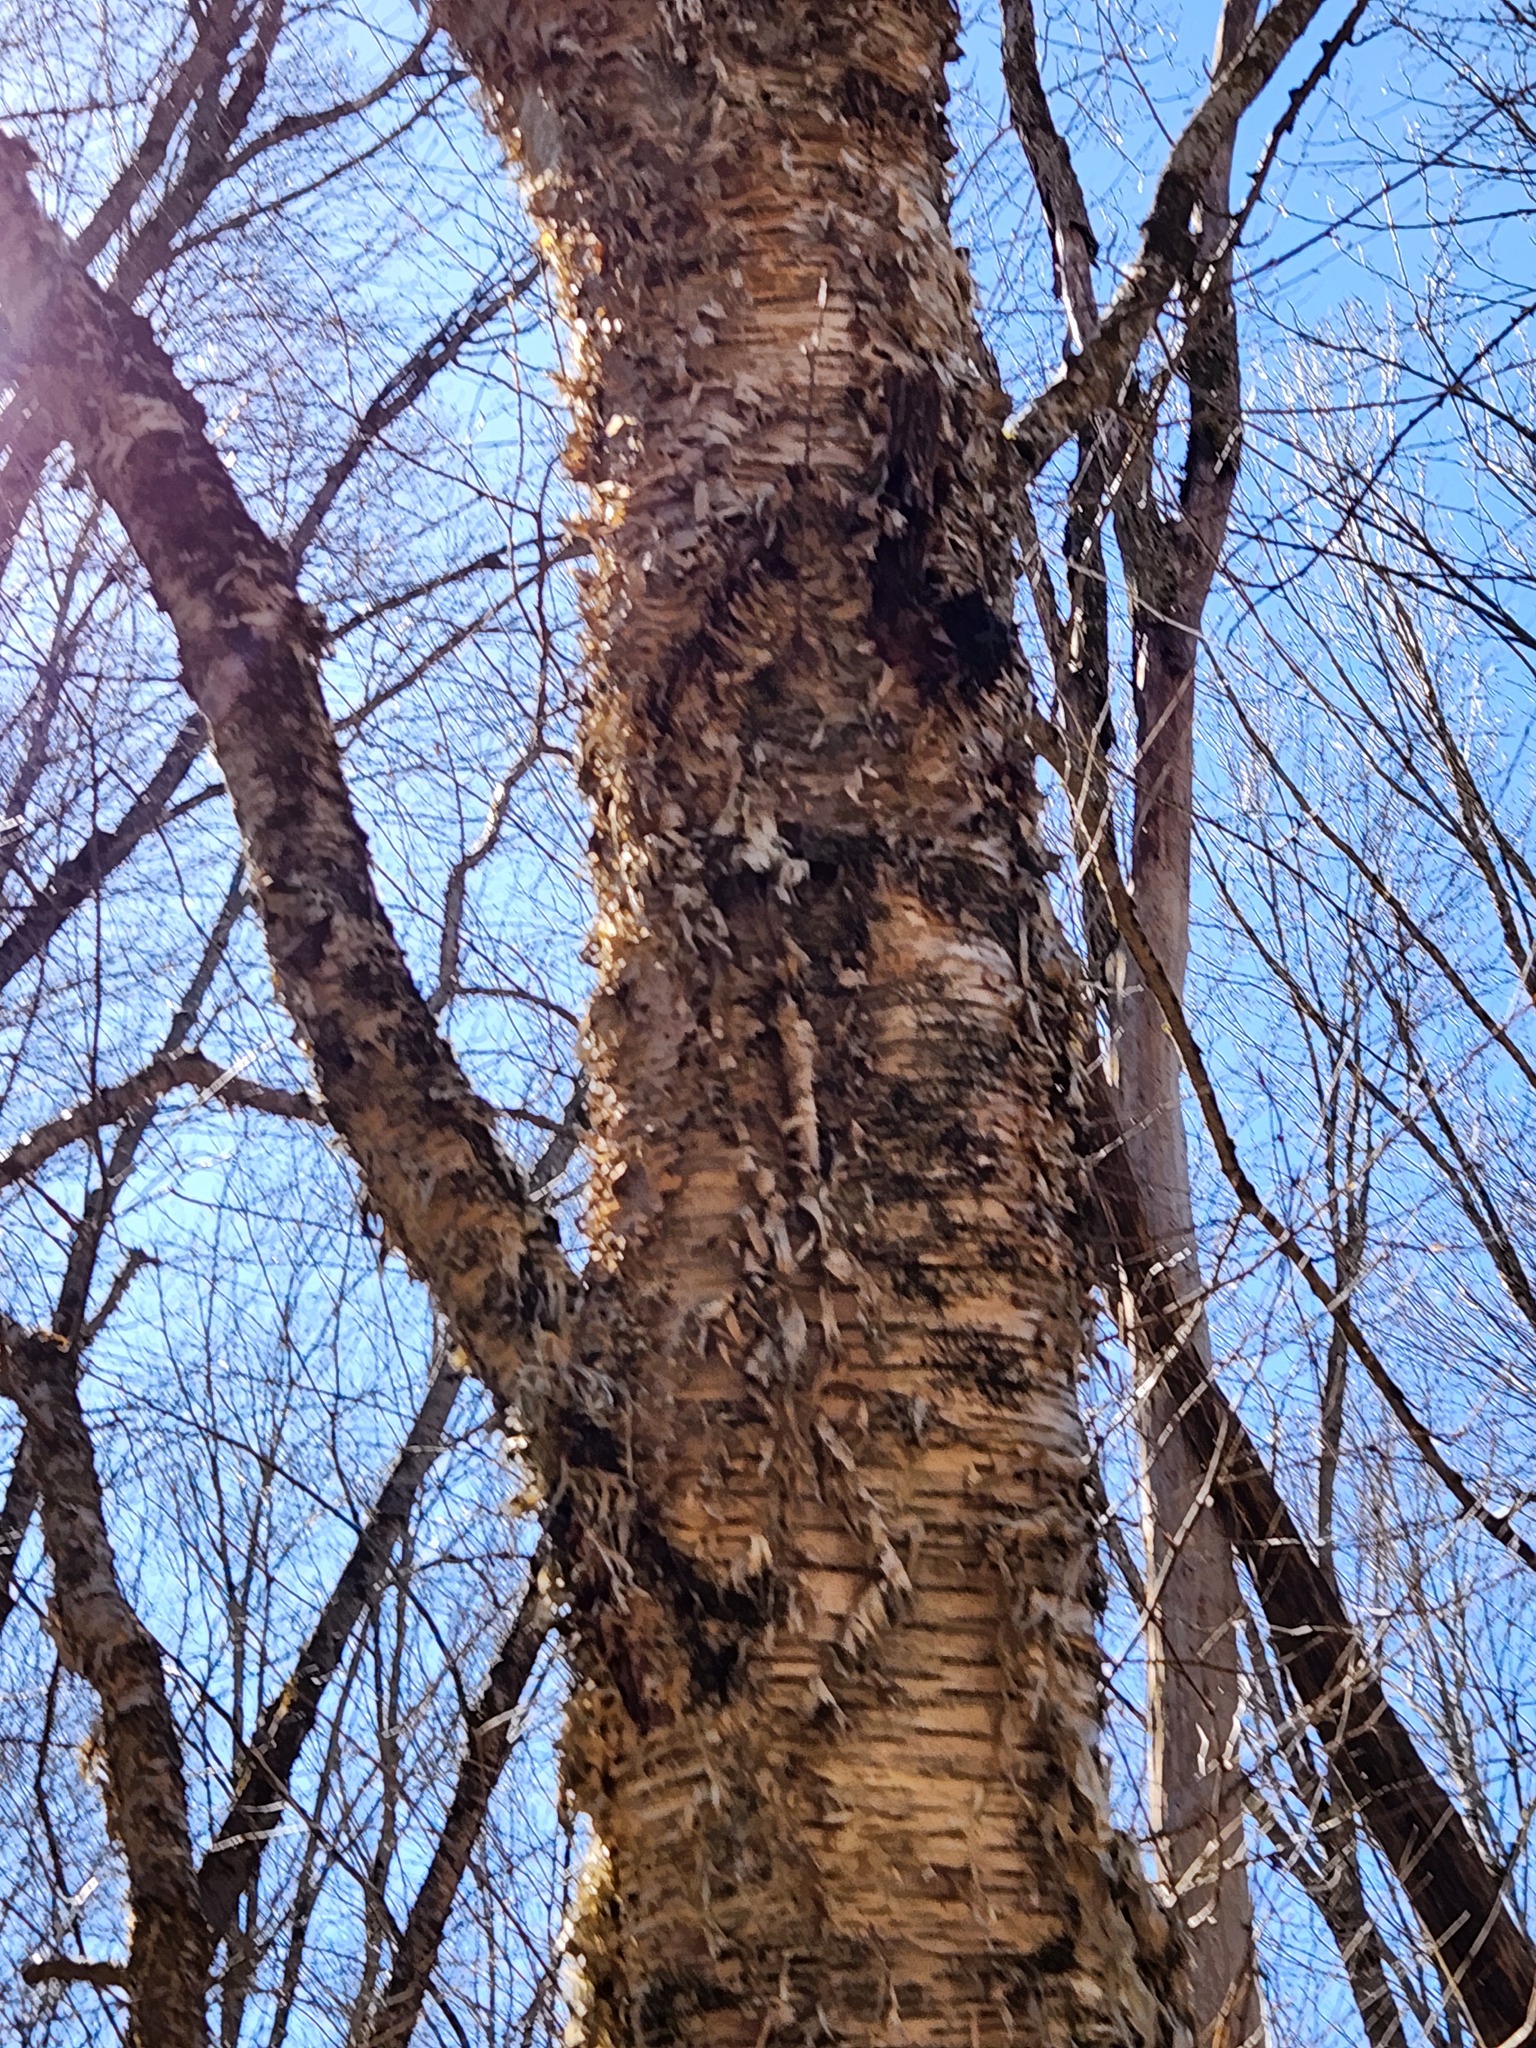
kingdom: Fungi
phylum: Basidiomycota
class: Agaricomycetes
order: Hymenochaetales
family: Hymenochaetaceae
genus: Inonotus
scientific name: Inonotus obliquus
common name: Chaga
